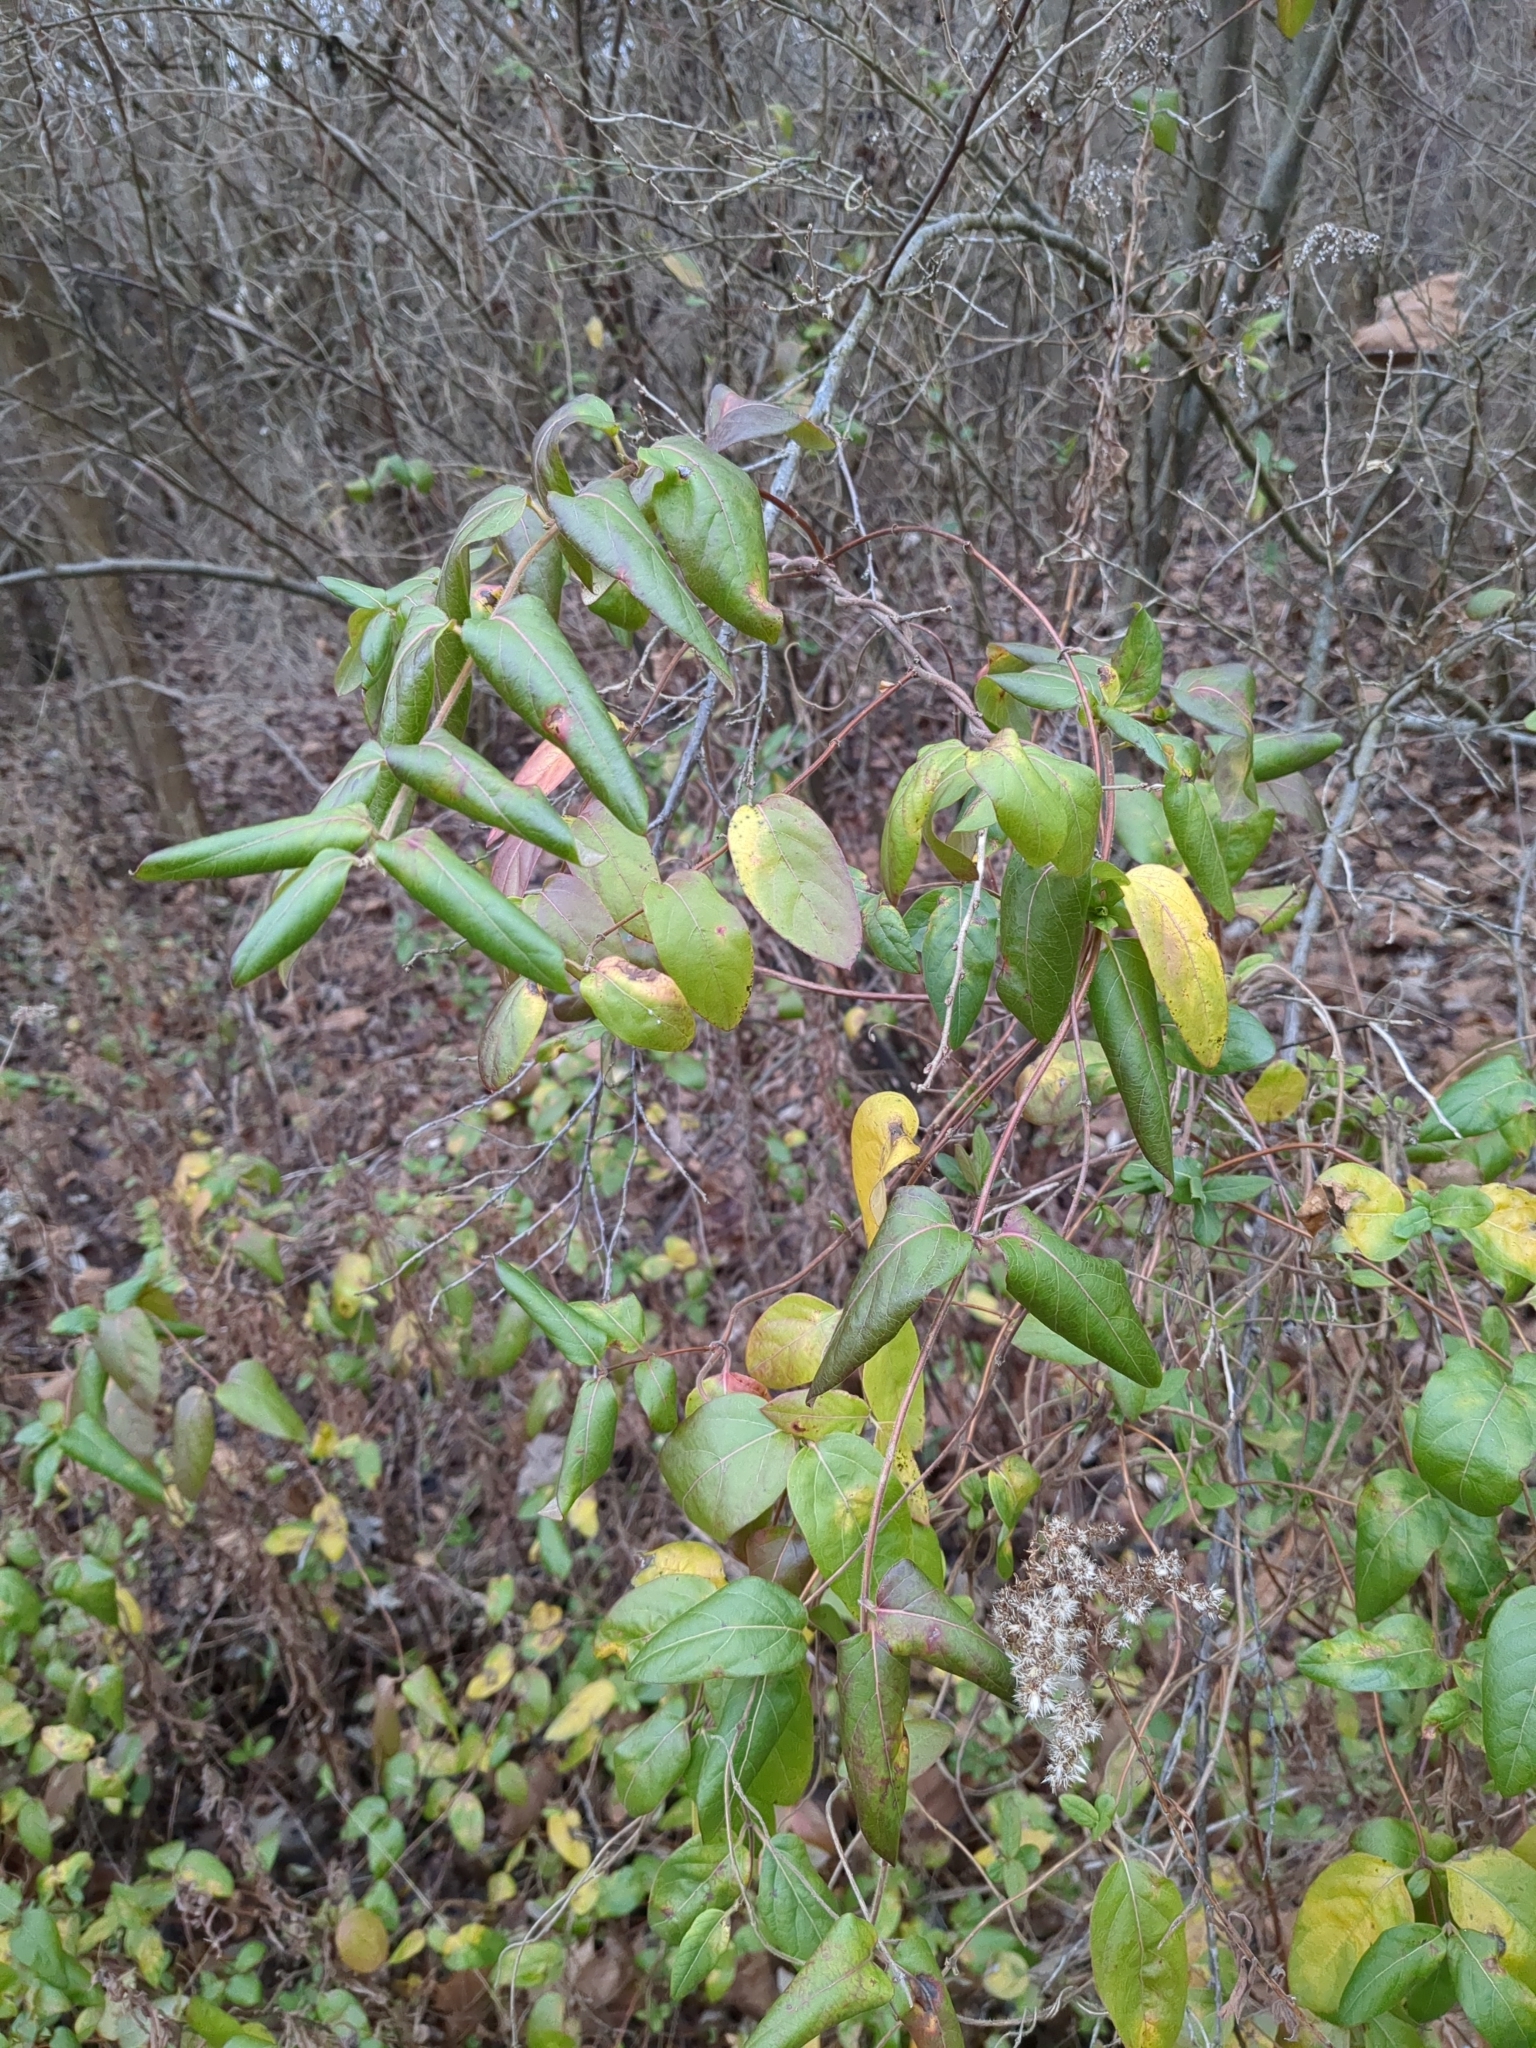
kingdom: Plantae
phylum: Tracheophyta
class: Magnoliopsida
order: Dipsacales
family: Caprifoliaceae
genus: Lonicera
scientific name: Lonicera japonica
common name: Japanese honeysuckle
